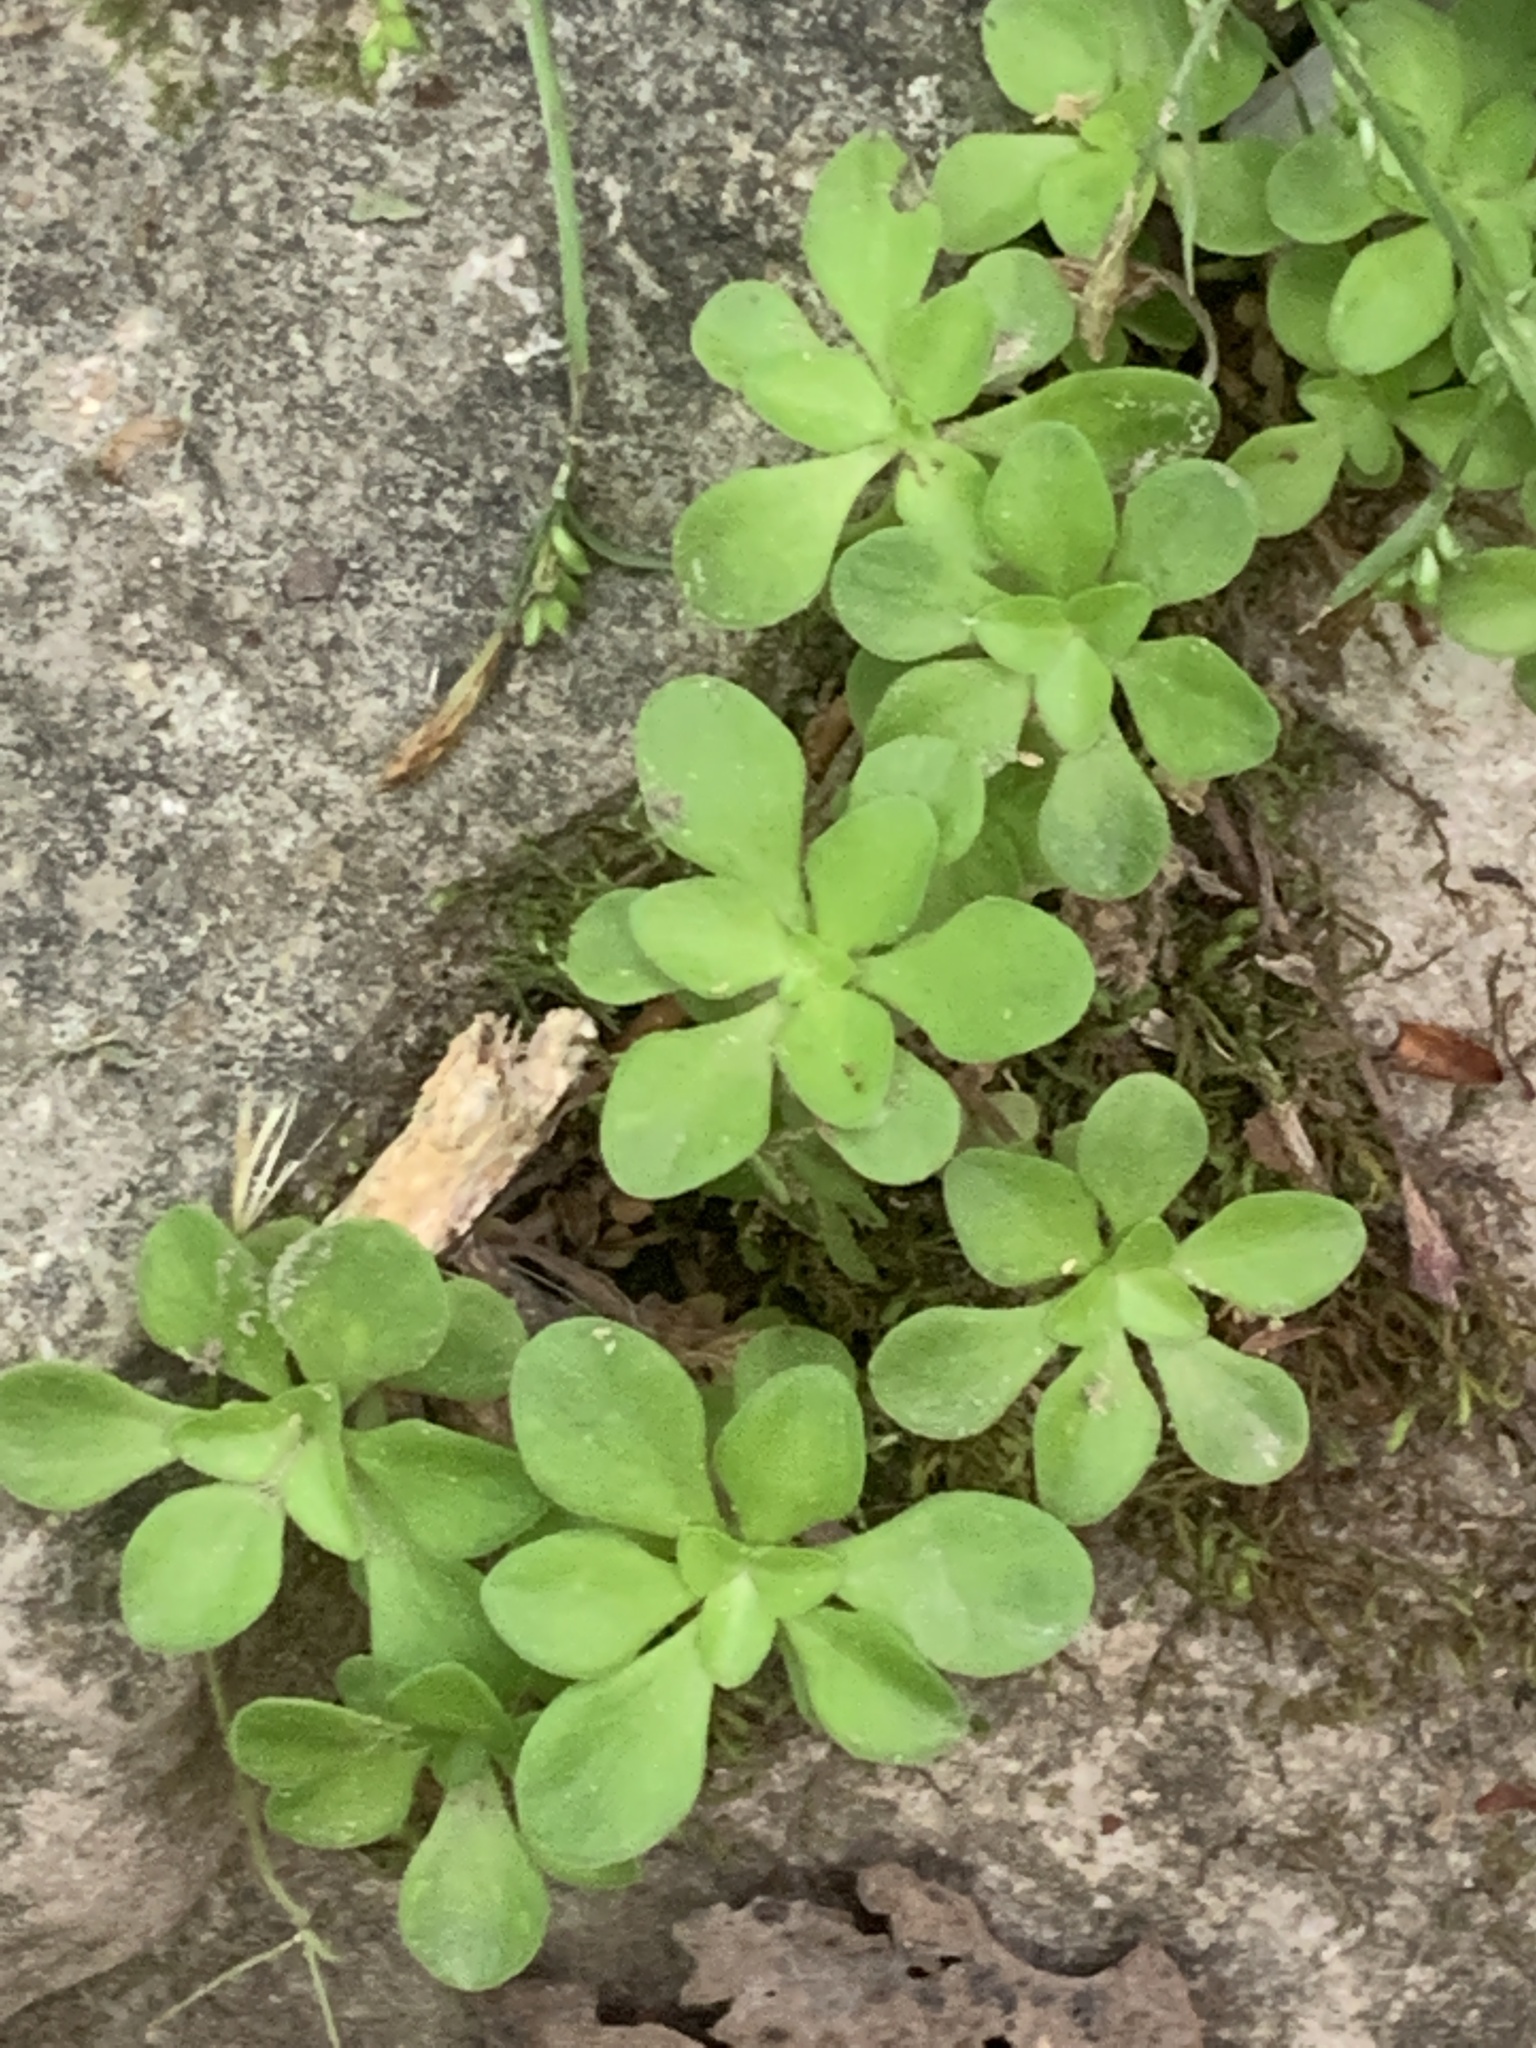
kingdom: Plantae
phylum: Tracheophyta
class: Magnoliopsida
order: Saxifragales
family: Crassulaceae
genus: Sedum
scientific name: Sedum ternatum
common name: Wild stonecrop
